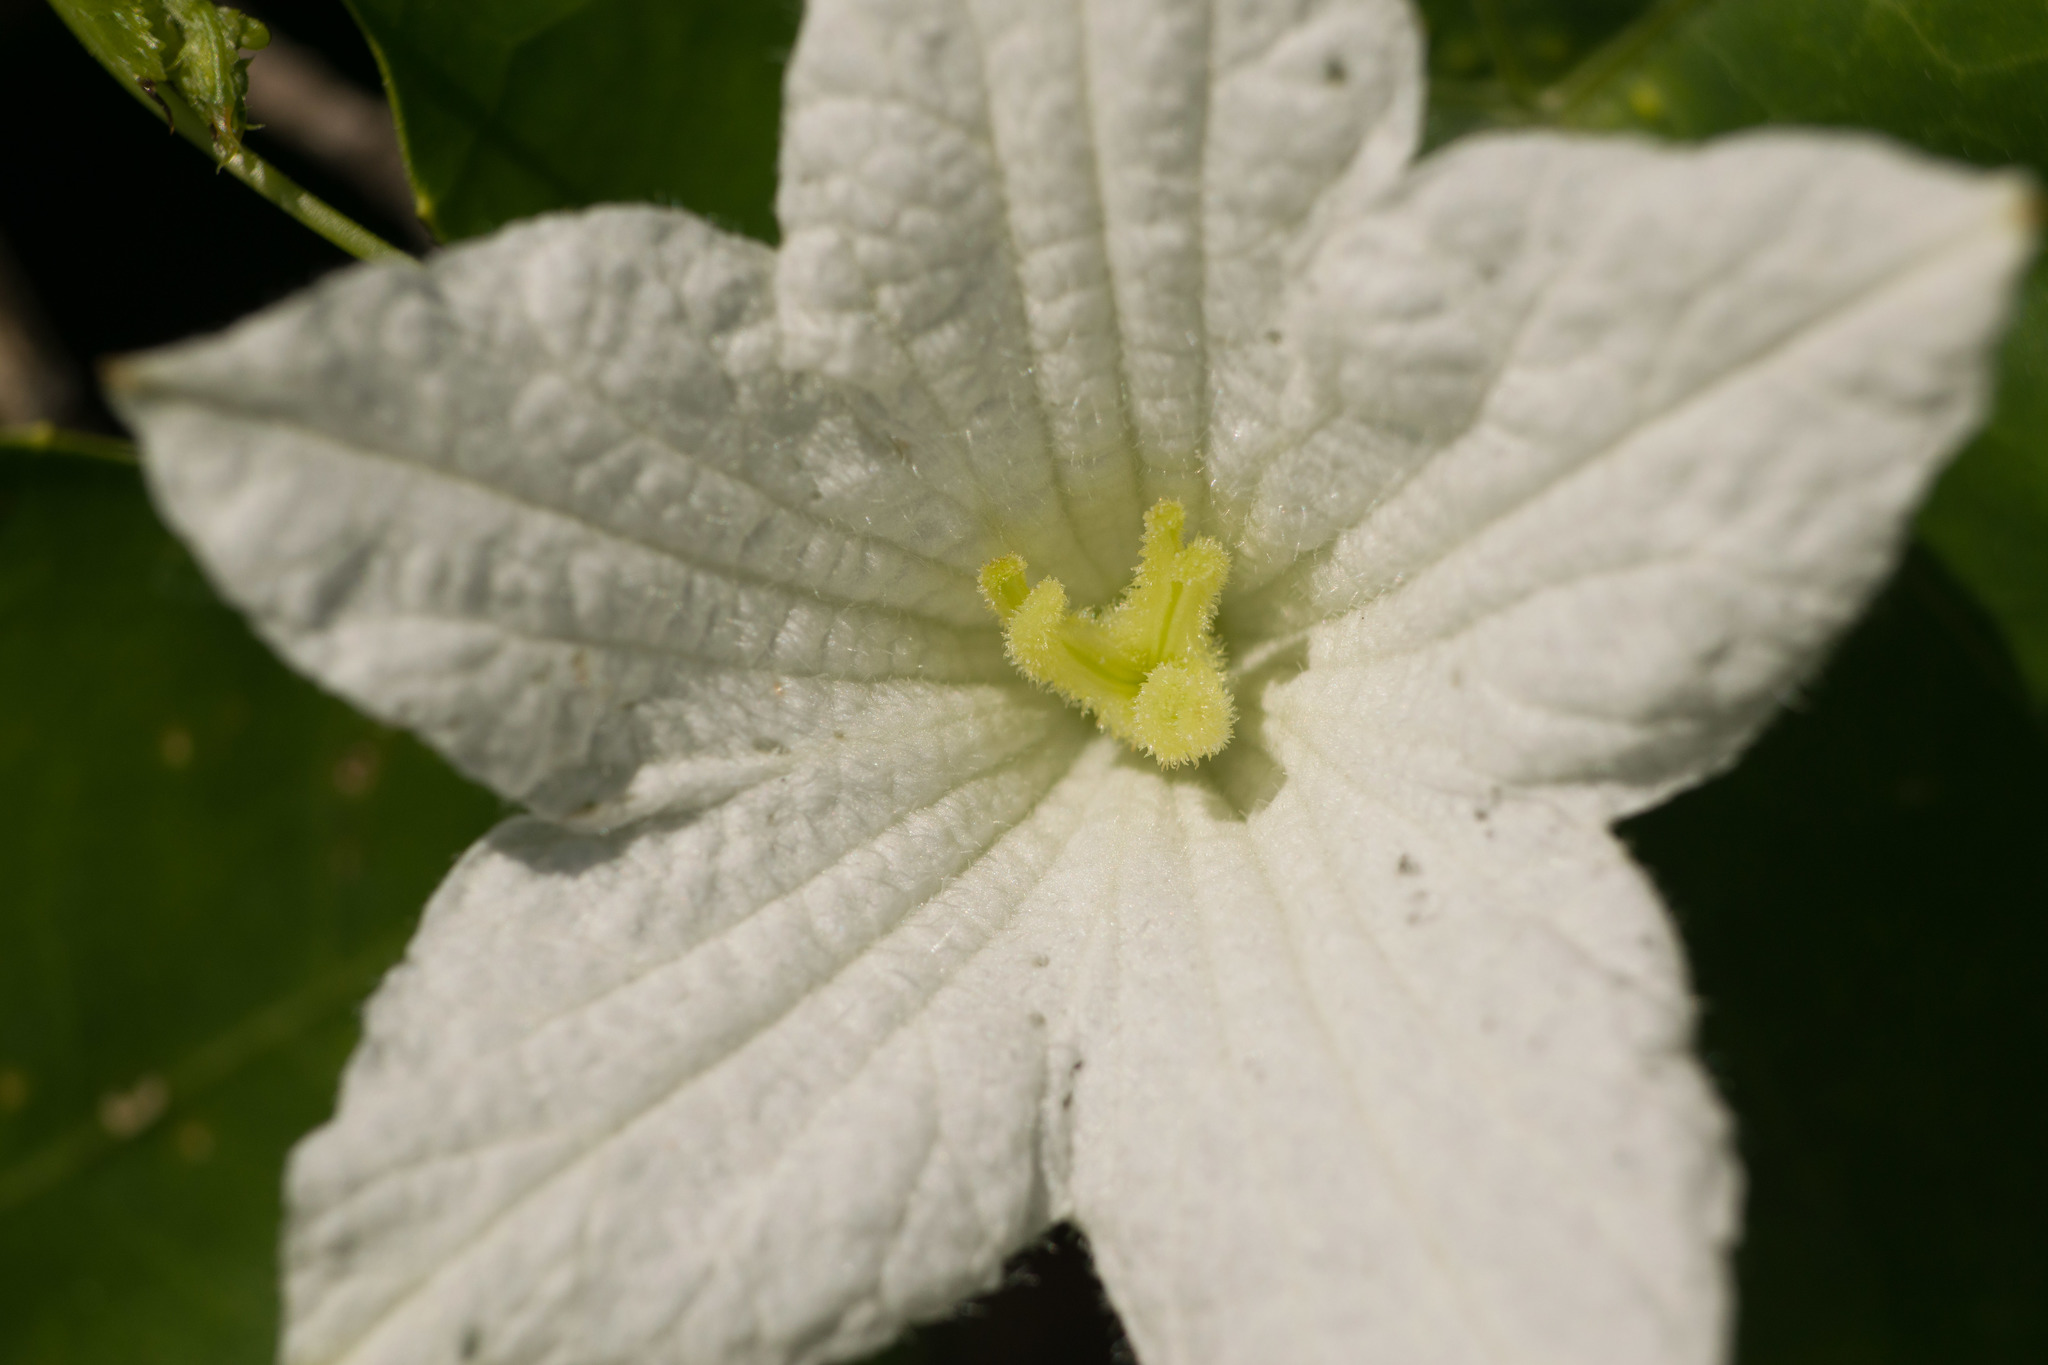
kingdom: Plantae
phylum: Tracheophyta
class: Magnoliopsida
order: Cucurbitales
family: Cucurbitaceae
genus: Coccinia
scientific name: Coccinia grandis
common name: Ivy gourd
